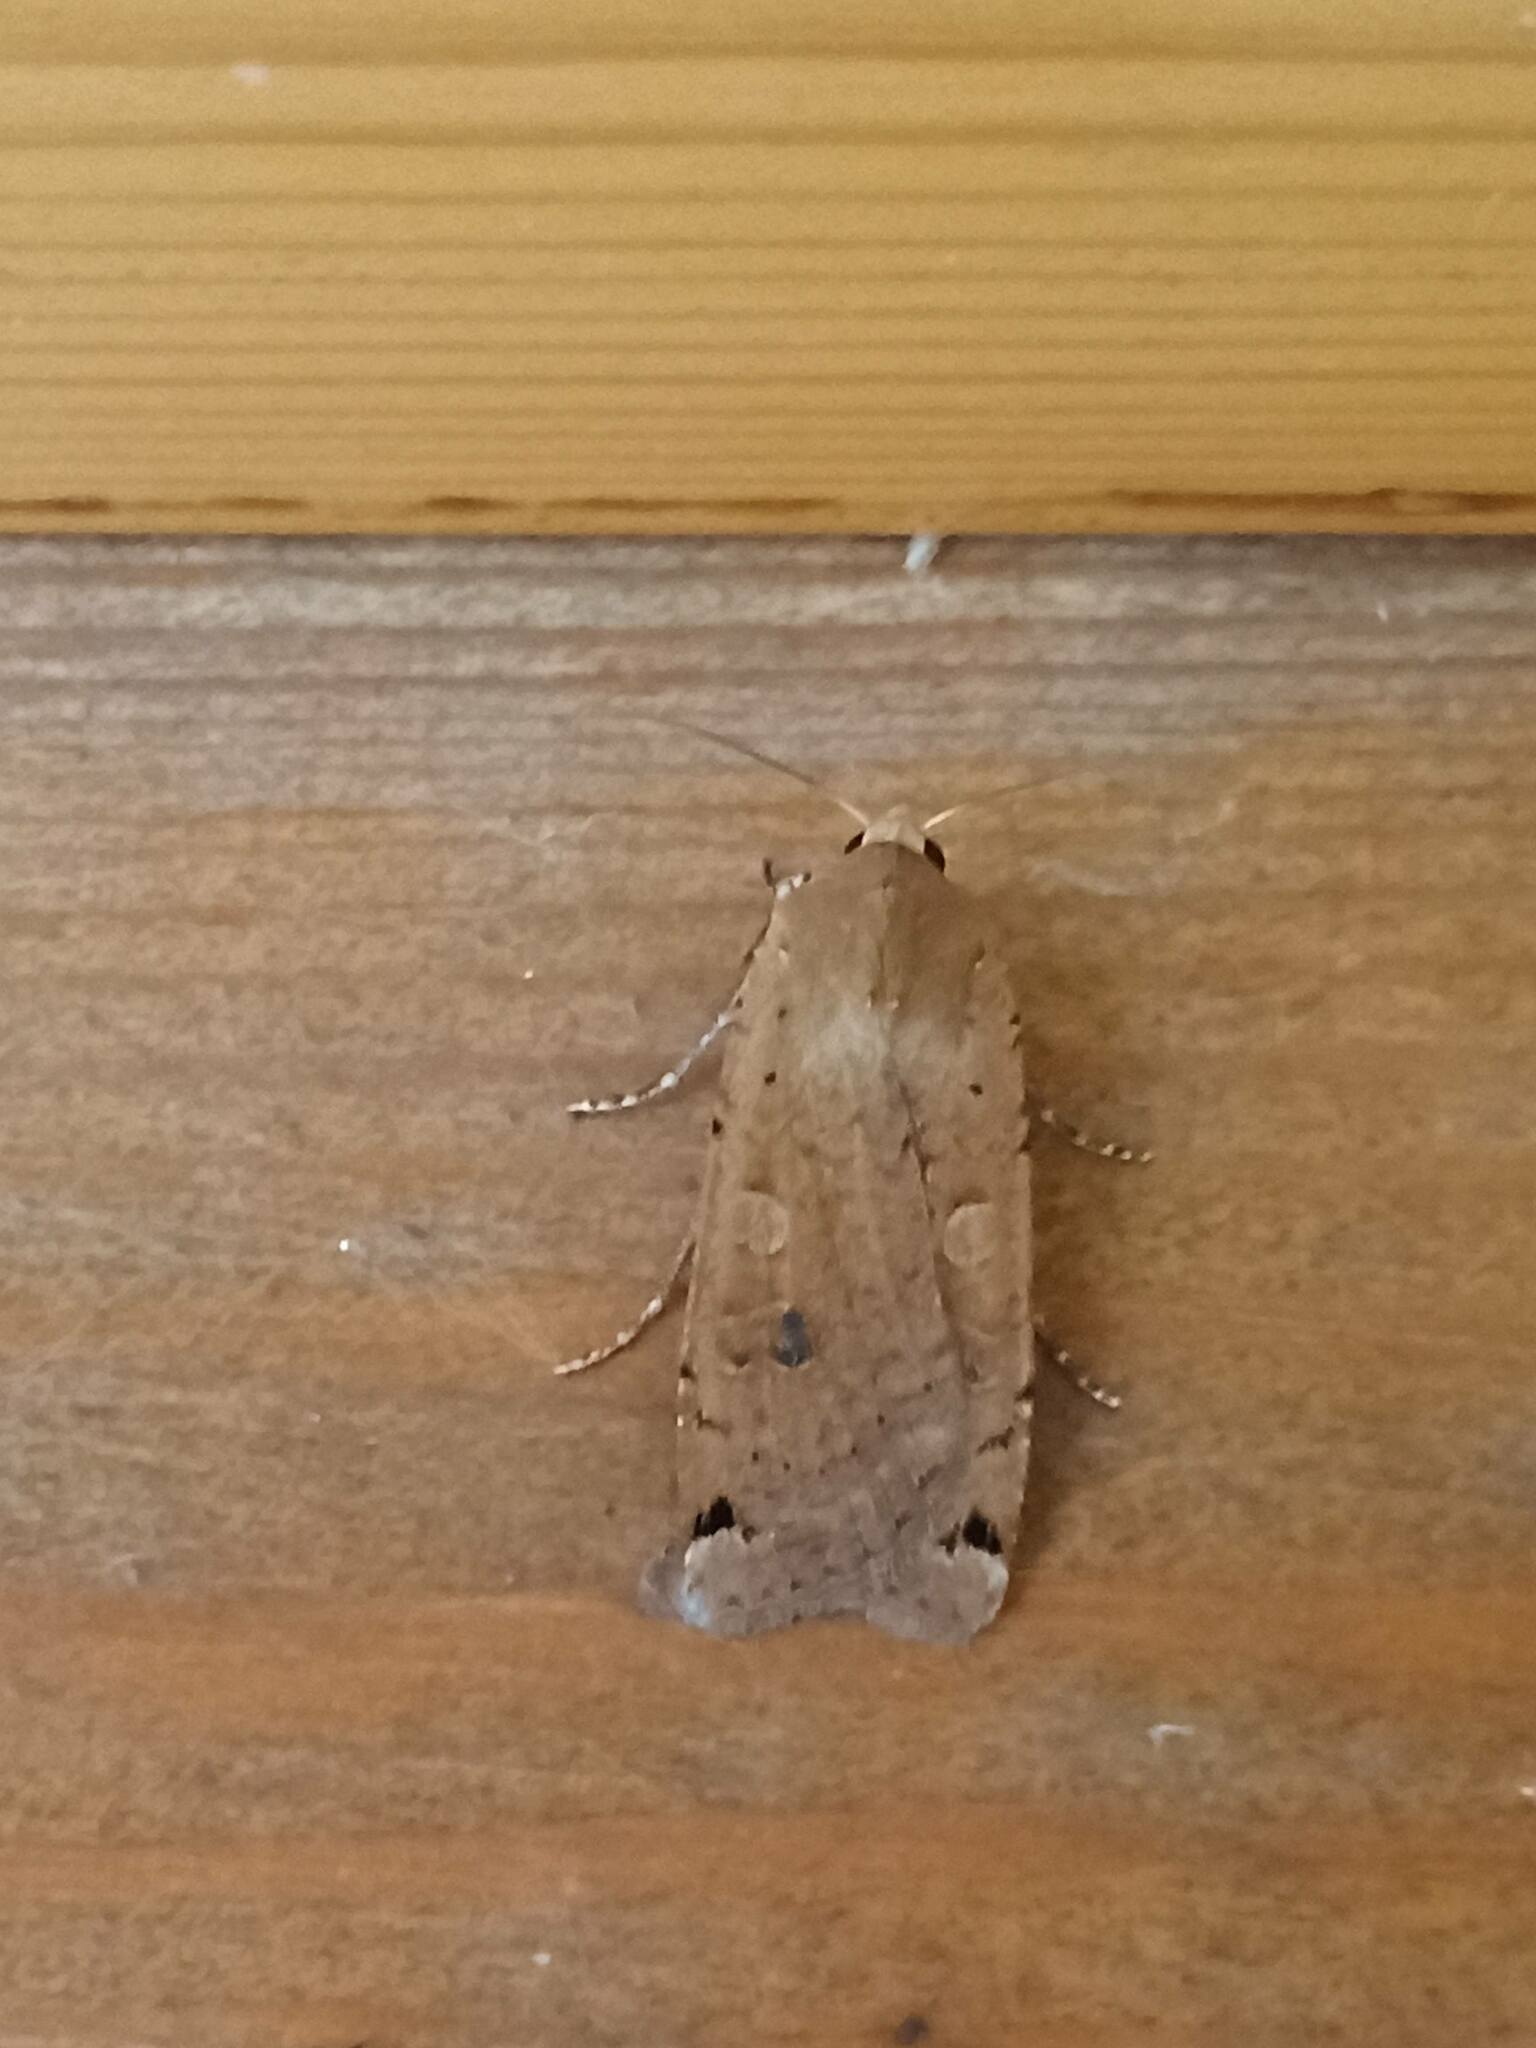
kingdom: Animalia
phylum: Arthropoda
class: Insecta
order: Lepidoptera
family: Noctuidae
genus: Noctua
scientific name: Noctua pronuba
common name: Large yellow underwing
